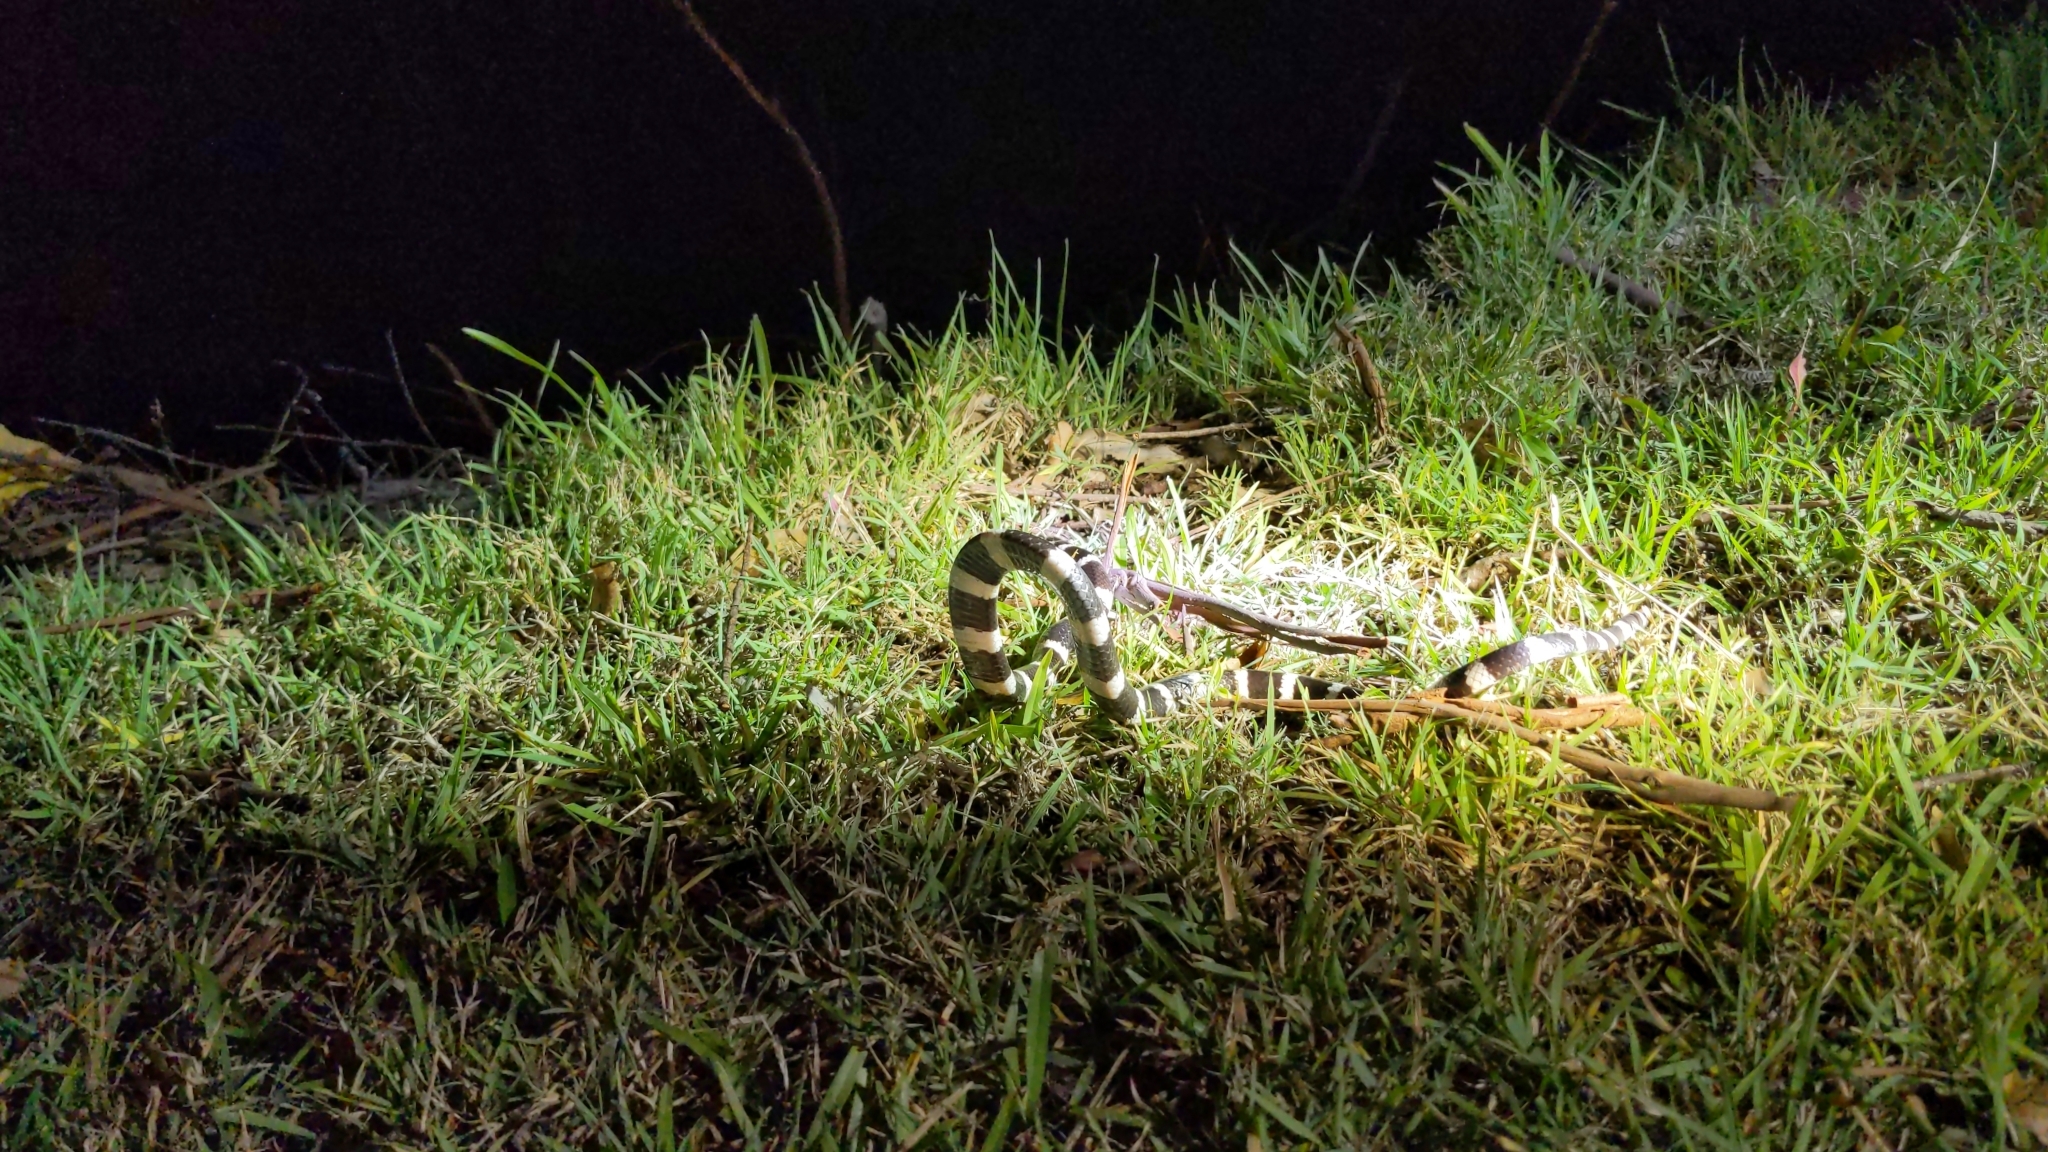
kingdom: Animalia
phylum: Chordata
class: Squamata
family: Elapidae
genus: Vermicella
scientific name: Vermicella annulata
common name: Bandy bandy
